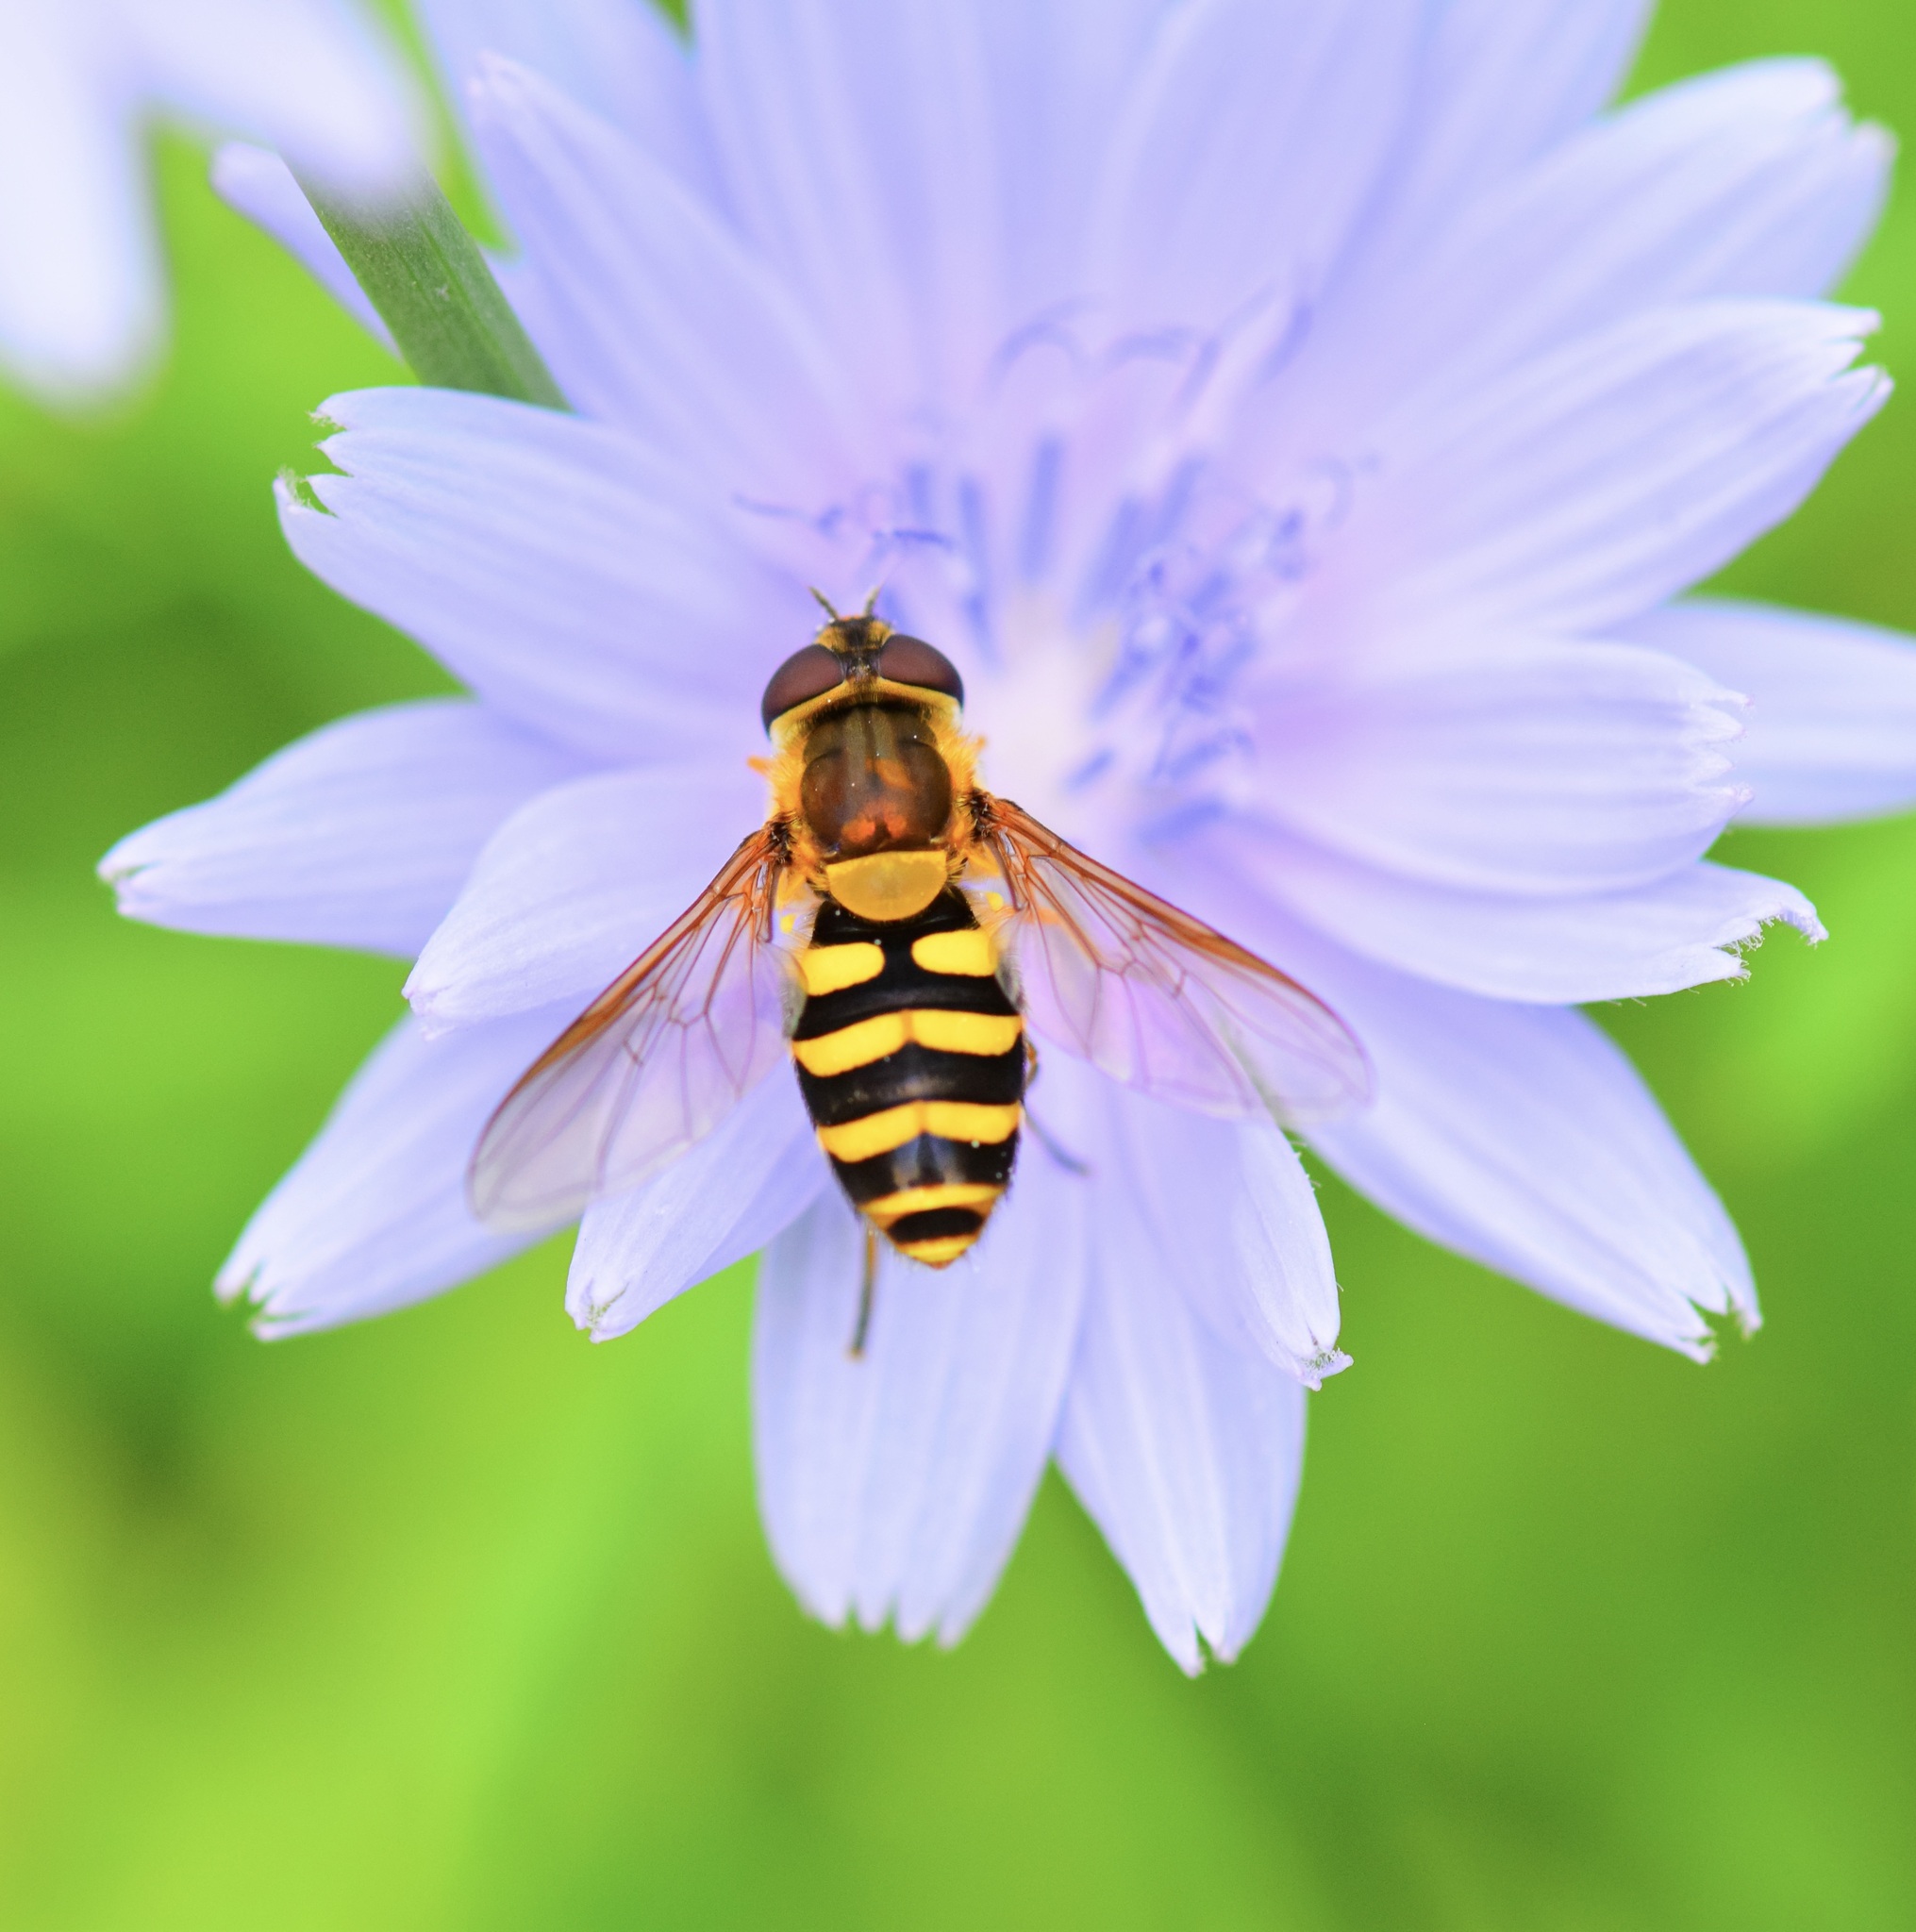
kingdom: Animalia
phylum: Arthropoda
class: Insecta
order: Diptera
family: Syrphidae
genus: Syrphus
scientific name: Syrphus
